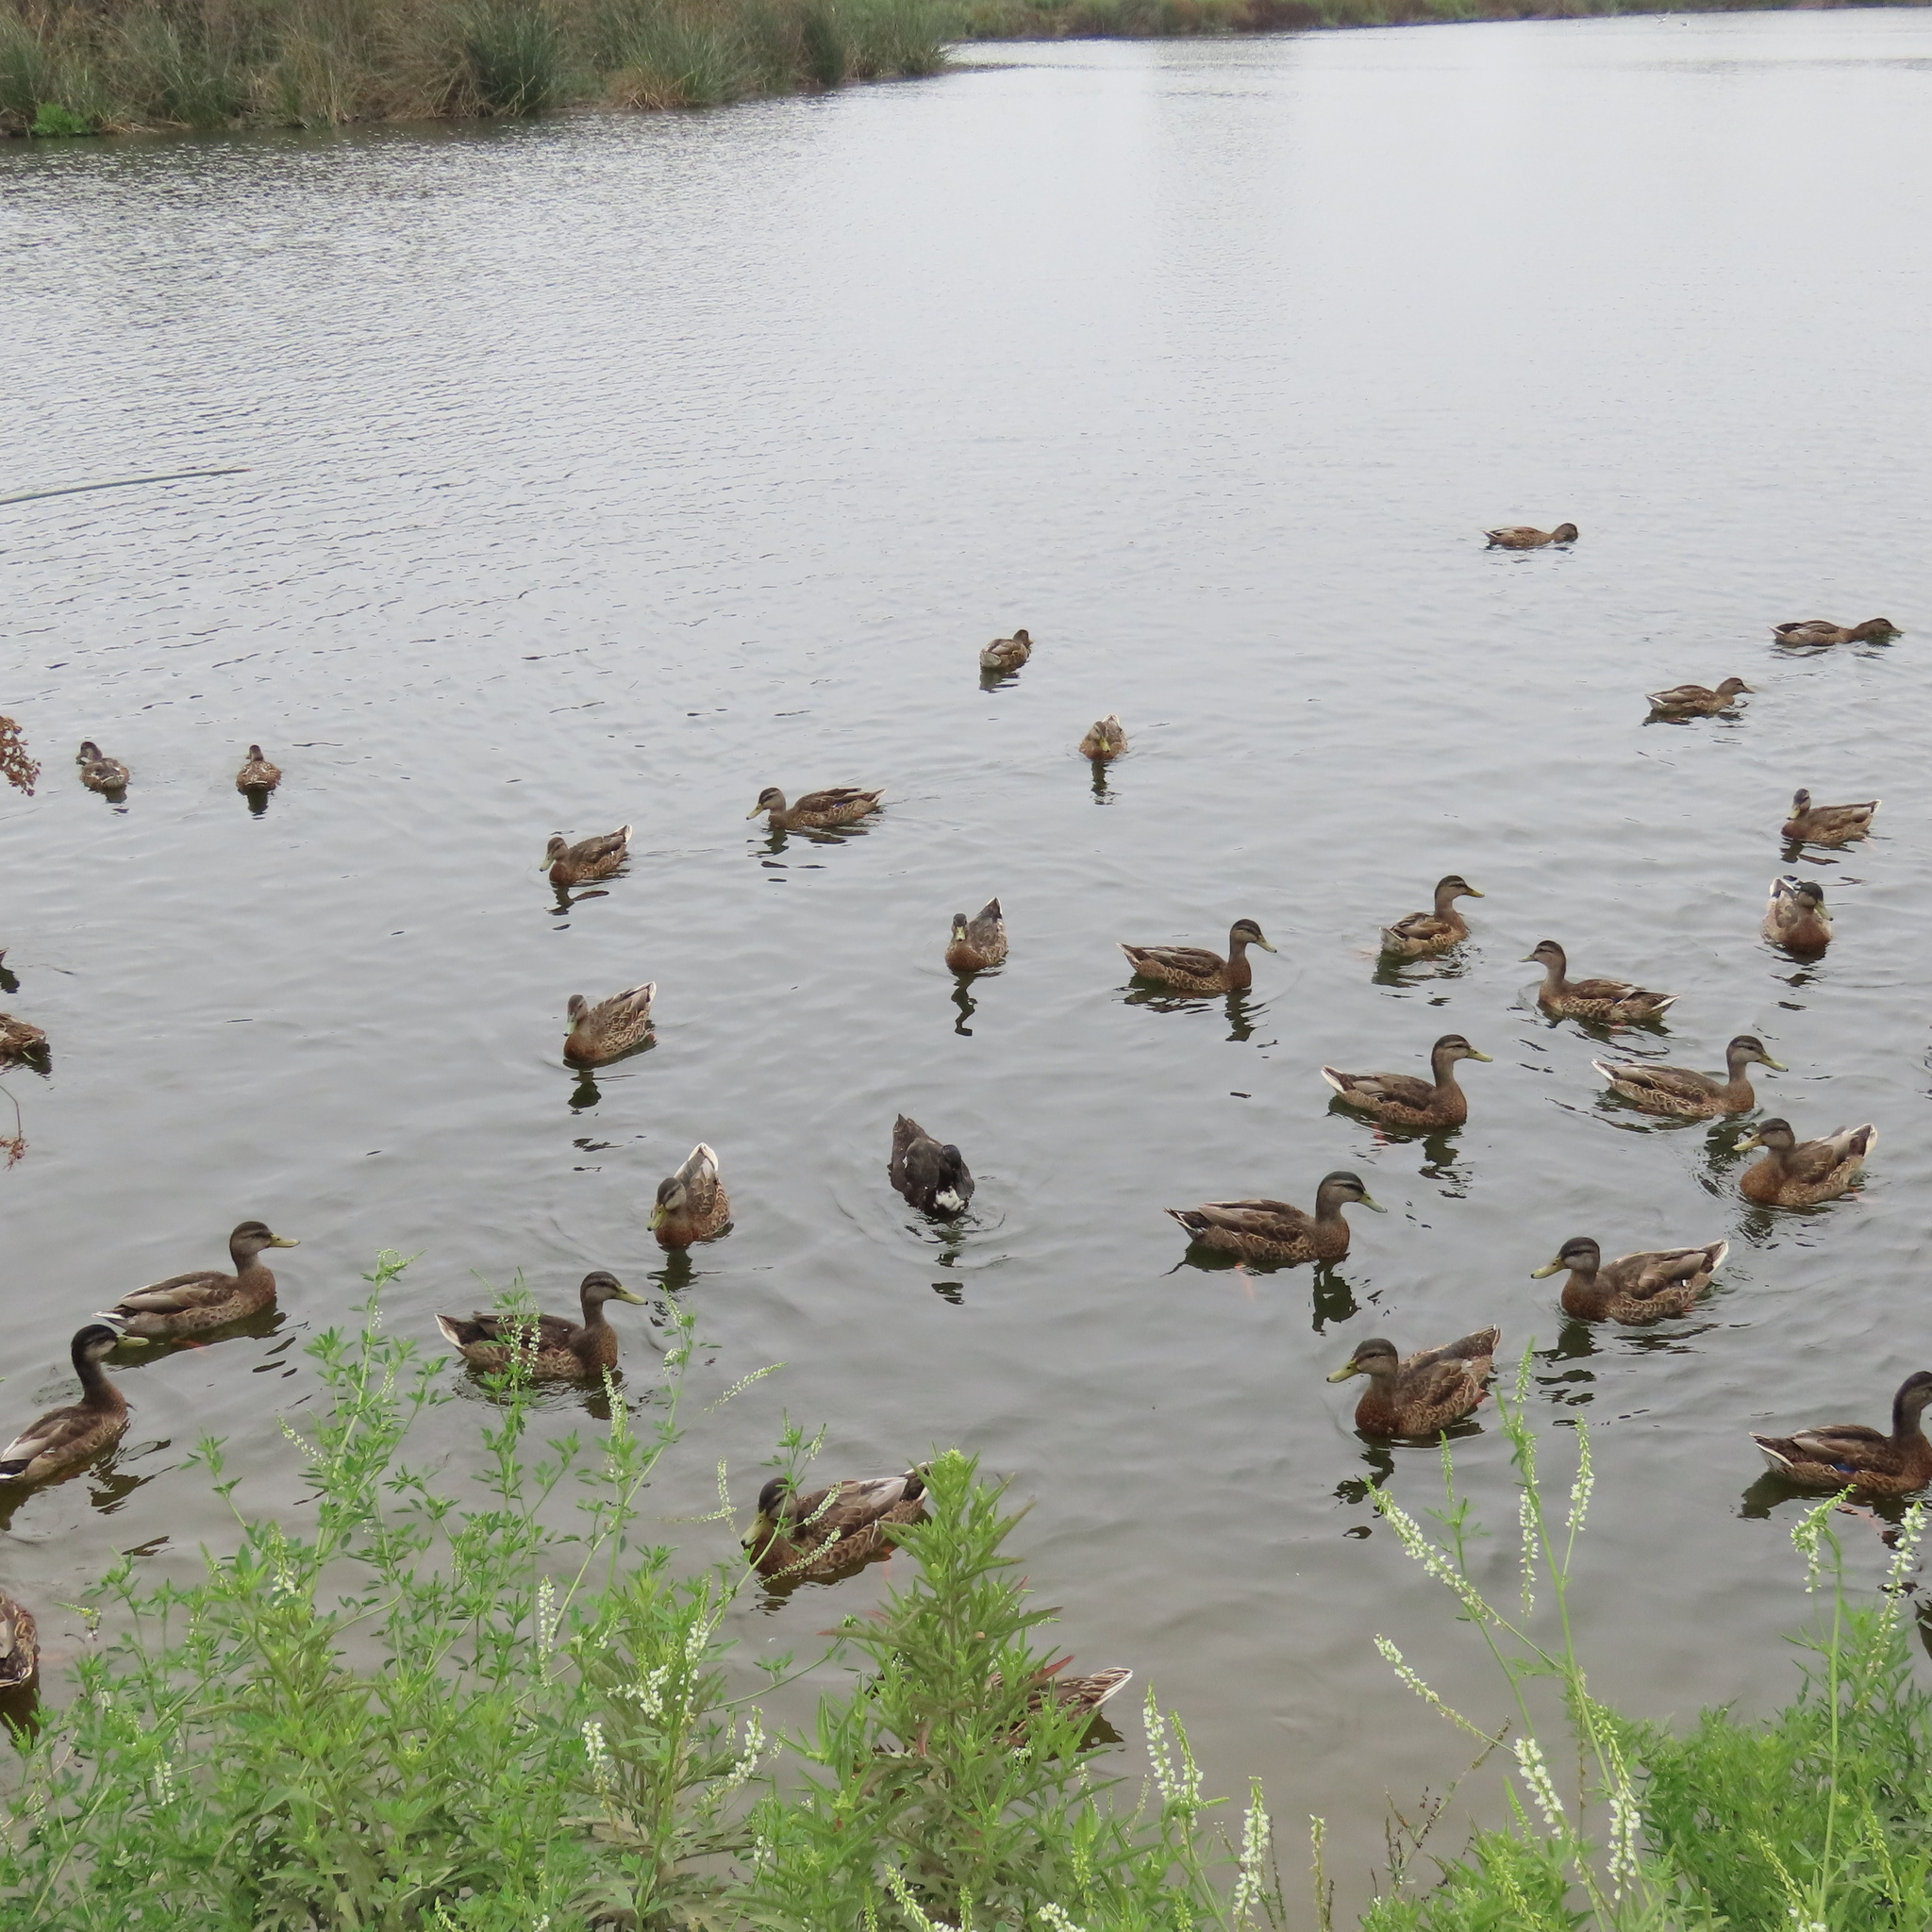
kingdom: Animalia
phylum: Chordata
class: Aves
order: Anseriformes
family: Anatidae
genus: Anas
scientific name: Anas platyrhynchos
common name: Mallard
